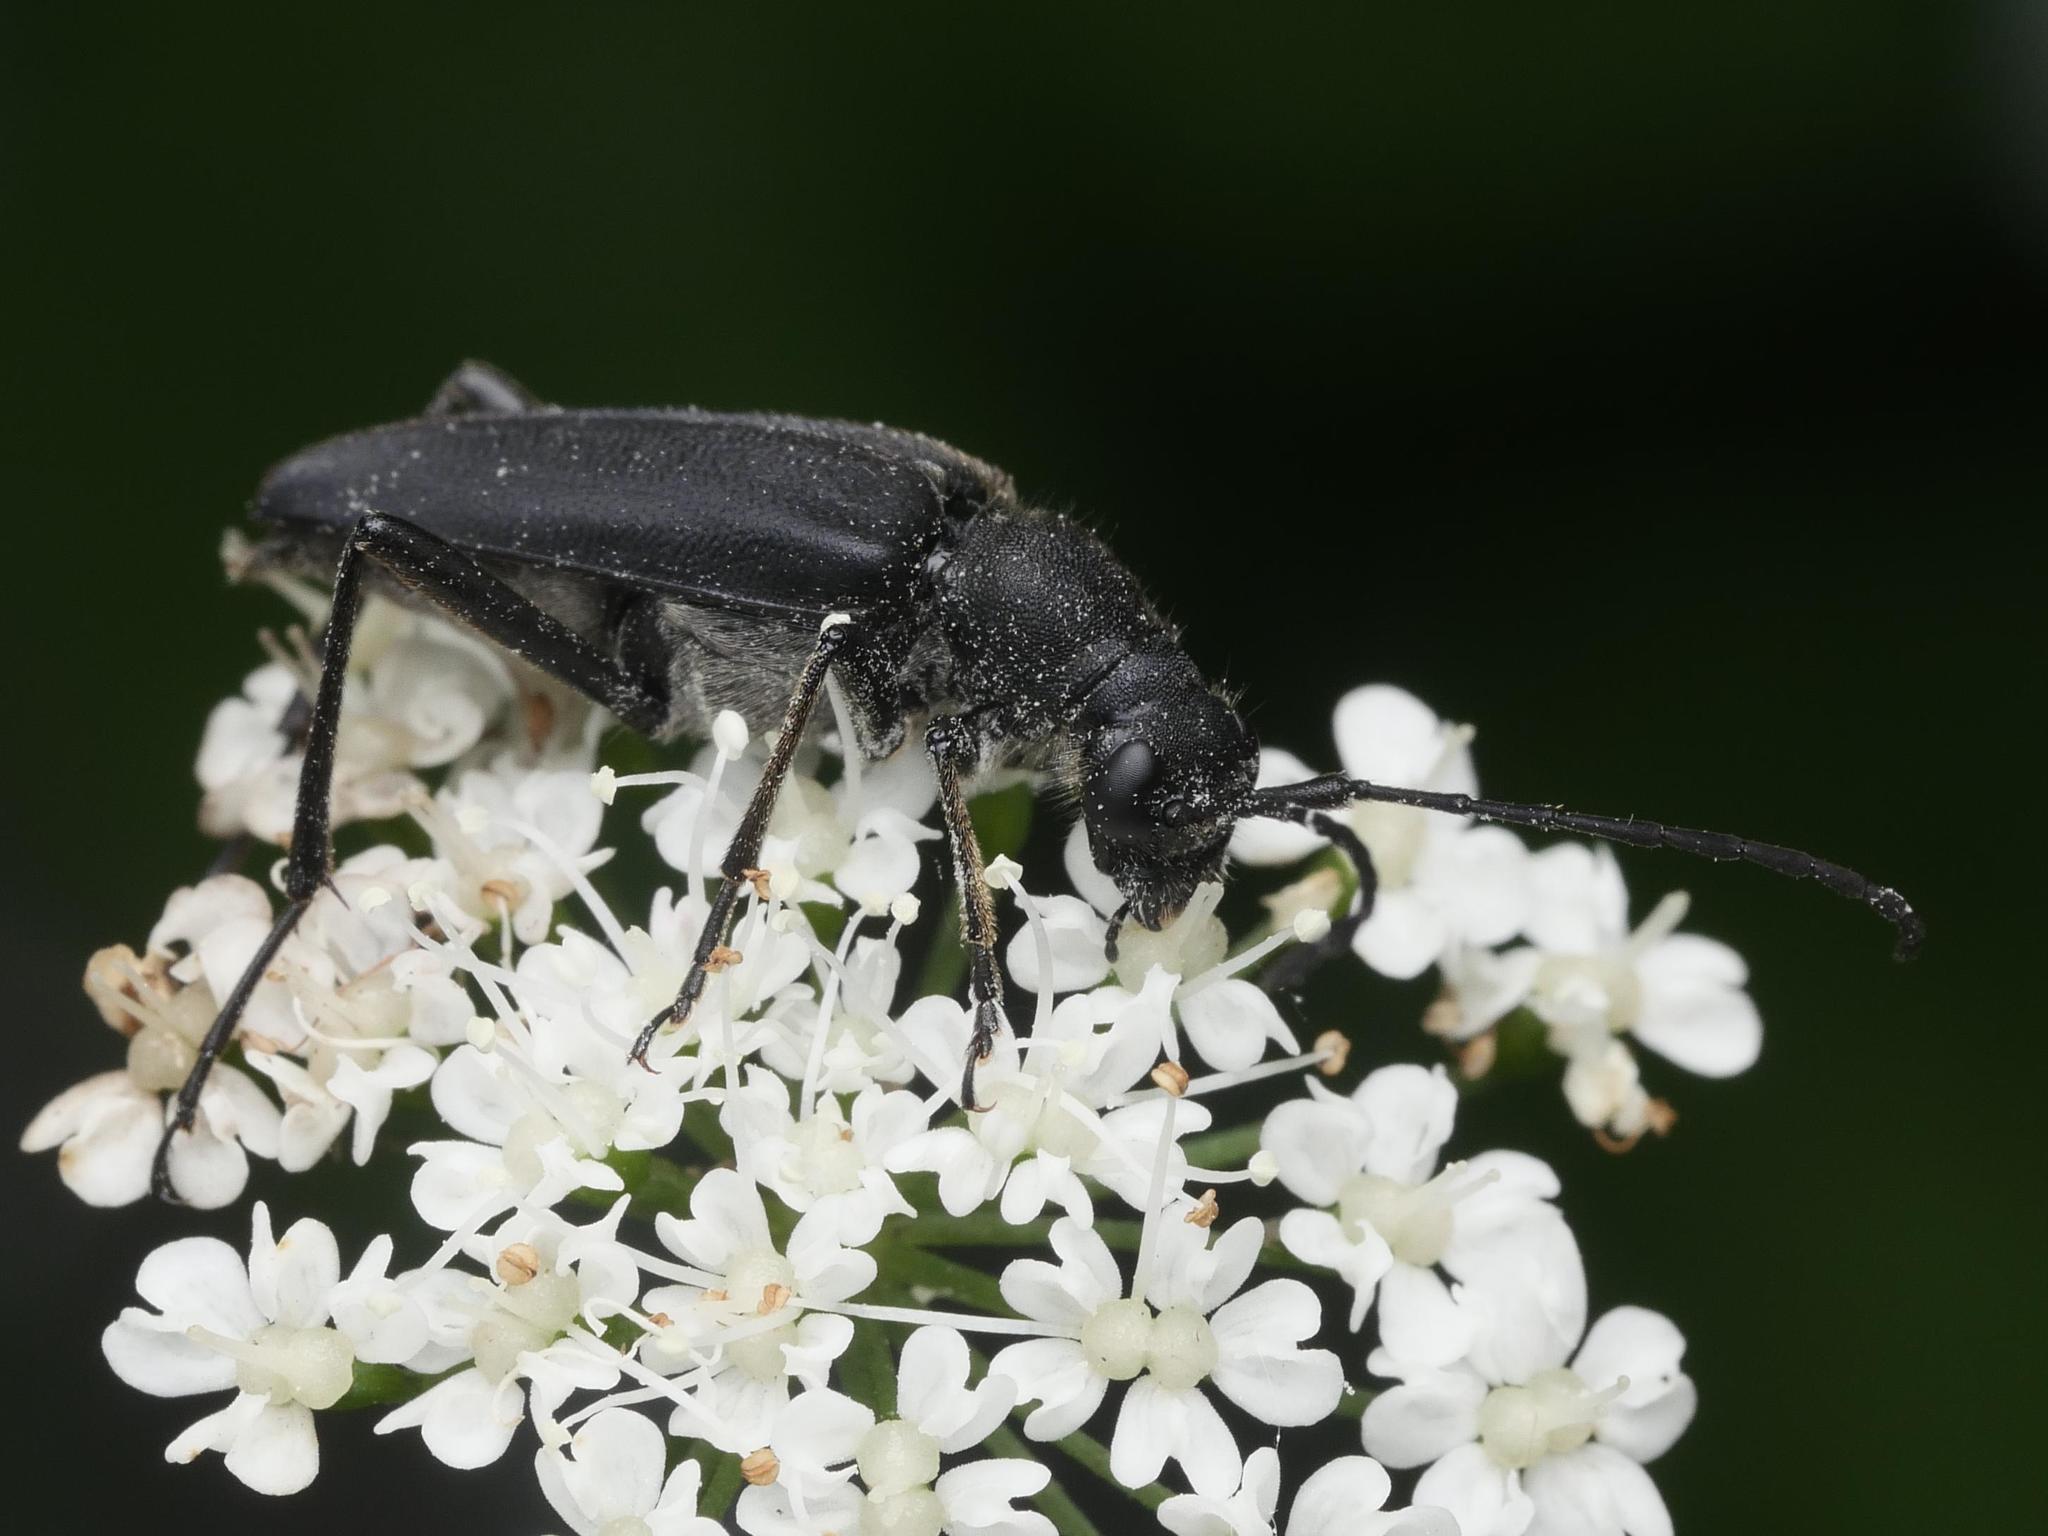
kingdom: Animalia
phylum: Arthropoda
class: Insecta
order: Coleoptera
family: Cerambycidae
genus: Anastrangalia
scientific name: Anastrangalia dubia
